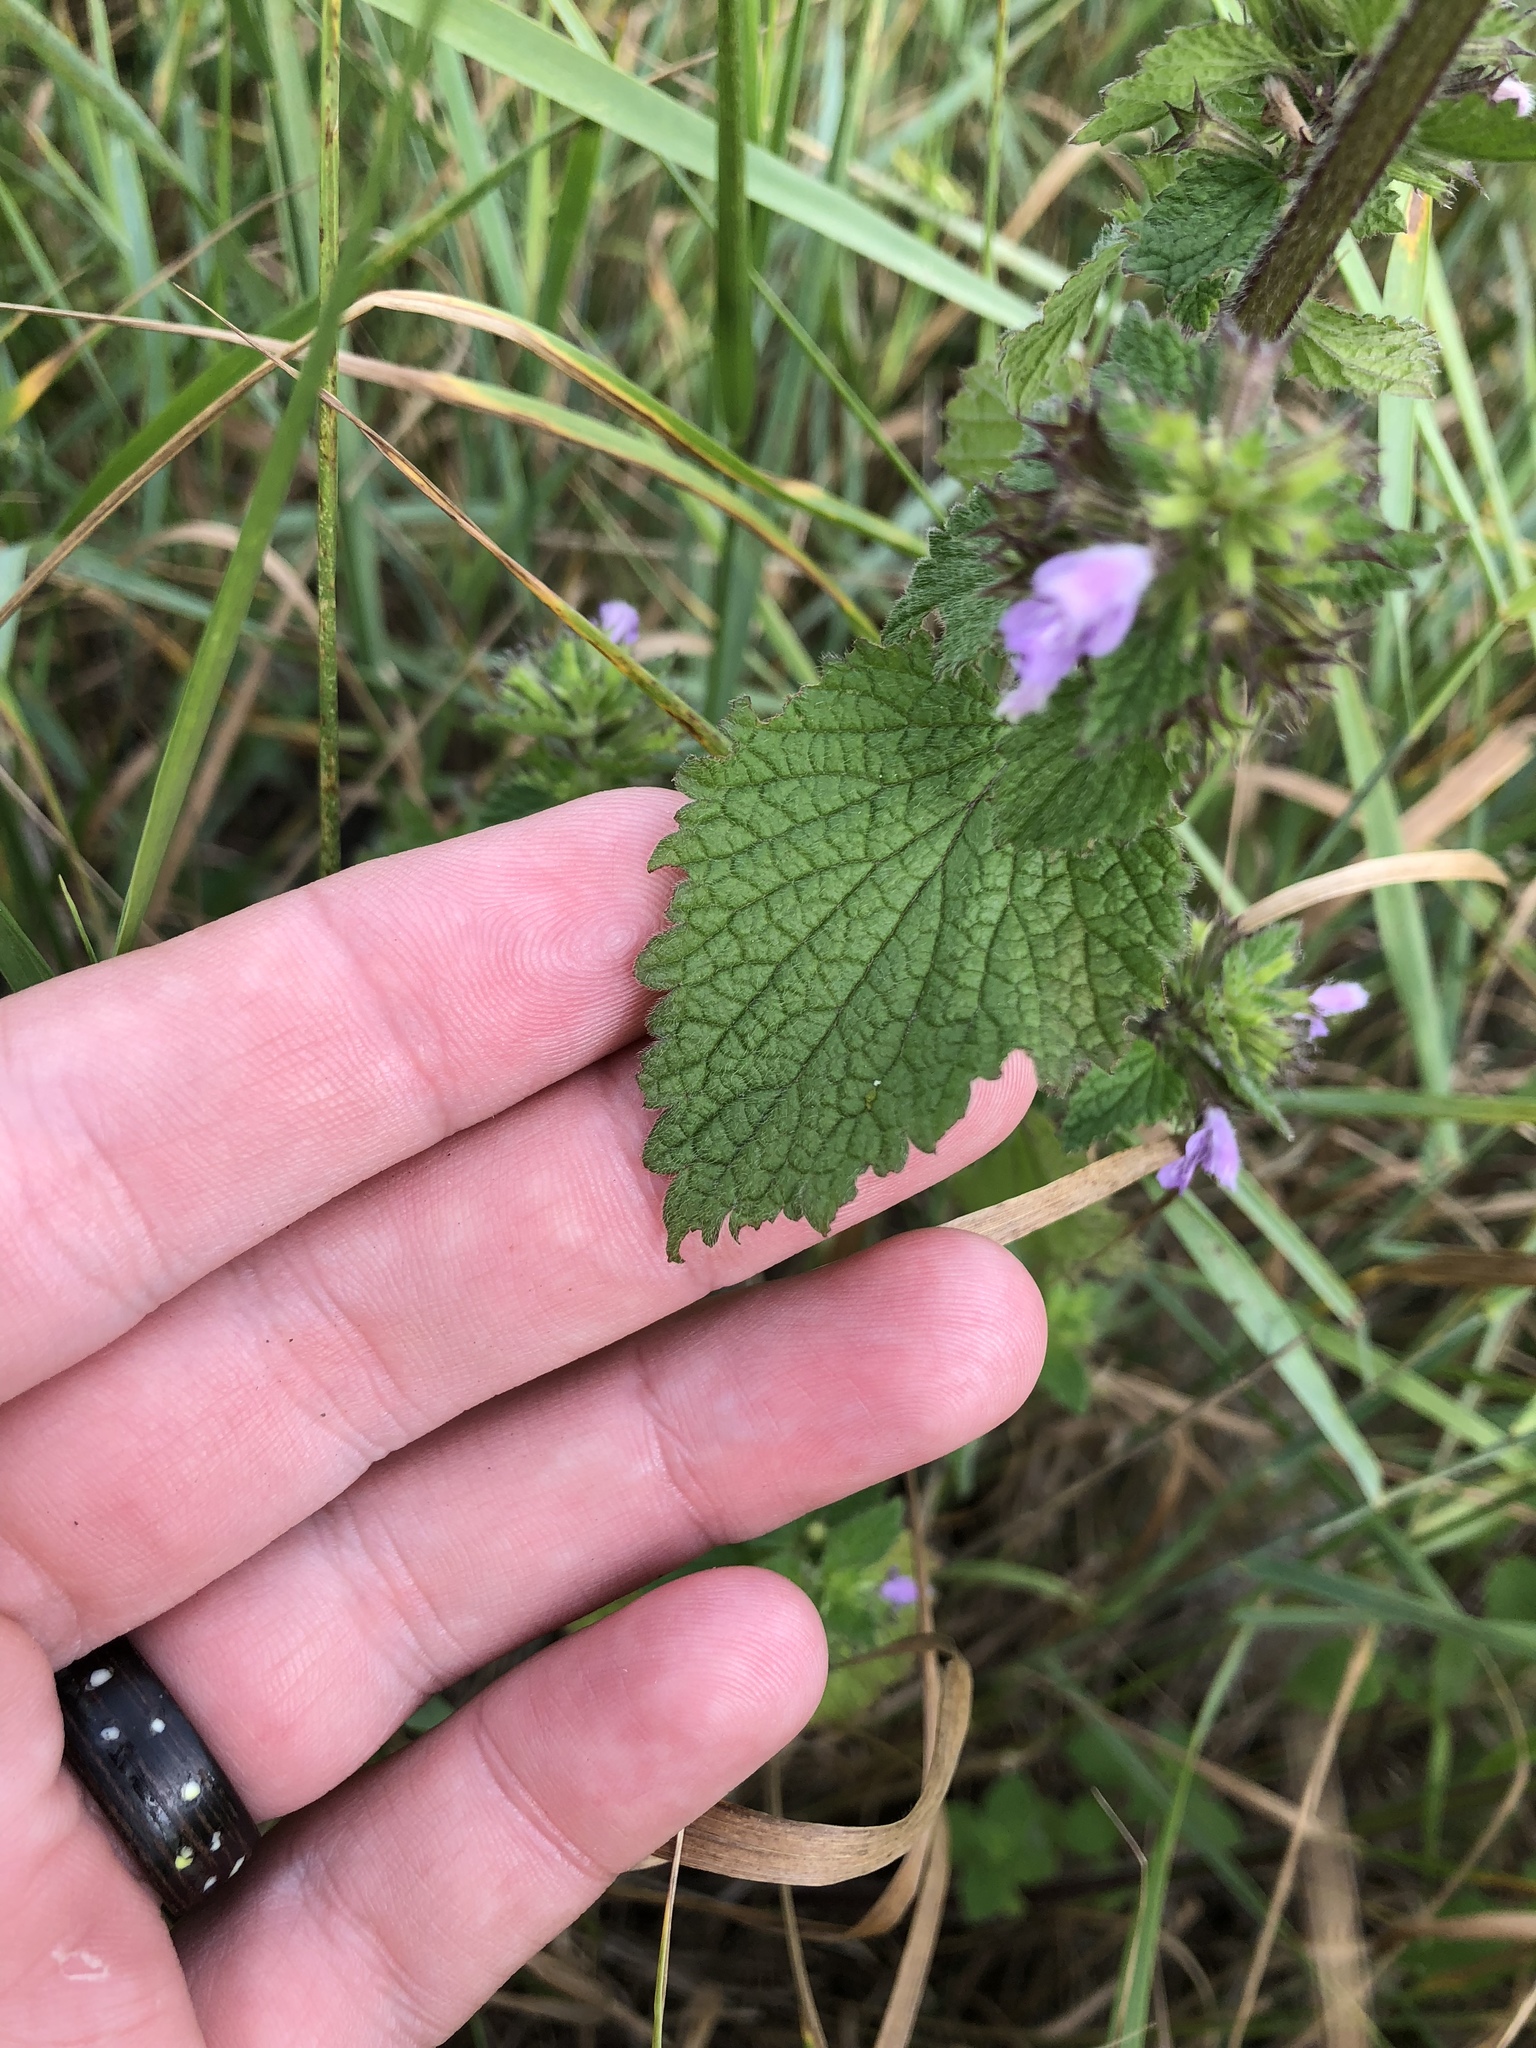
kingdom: Plantae
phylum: Tracheophyta
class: Magnoliopsida
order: Lamiales
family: Lamiaceae
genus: Ballota
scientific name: Ballota nigra
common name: Black horehound
